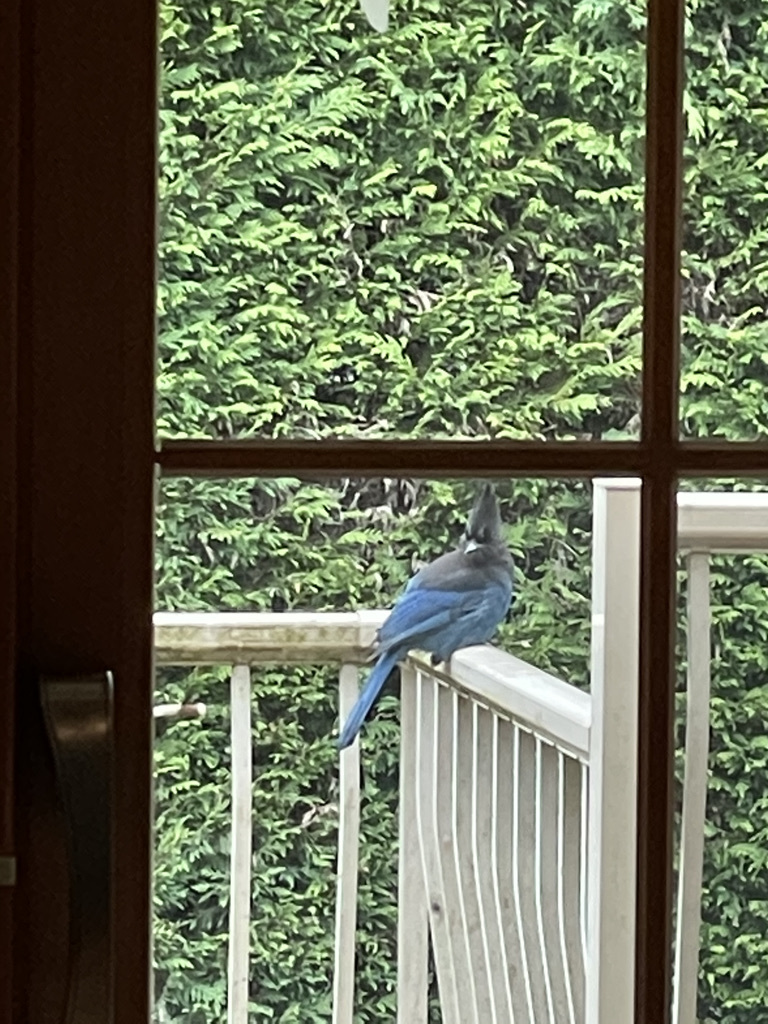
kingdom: Animalia
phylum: Chordata
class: Aves
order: Passeriformes
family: Corvidae
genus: Cyanocitta
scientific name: Cyanocitta stelleri
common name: Steller's jay
